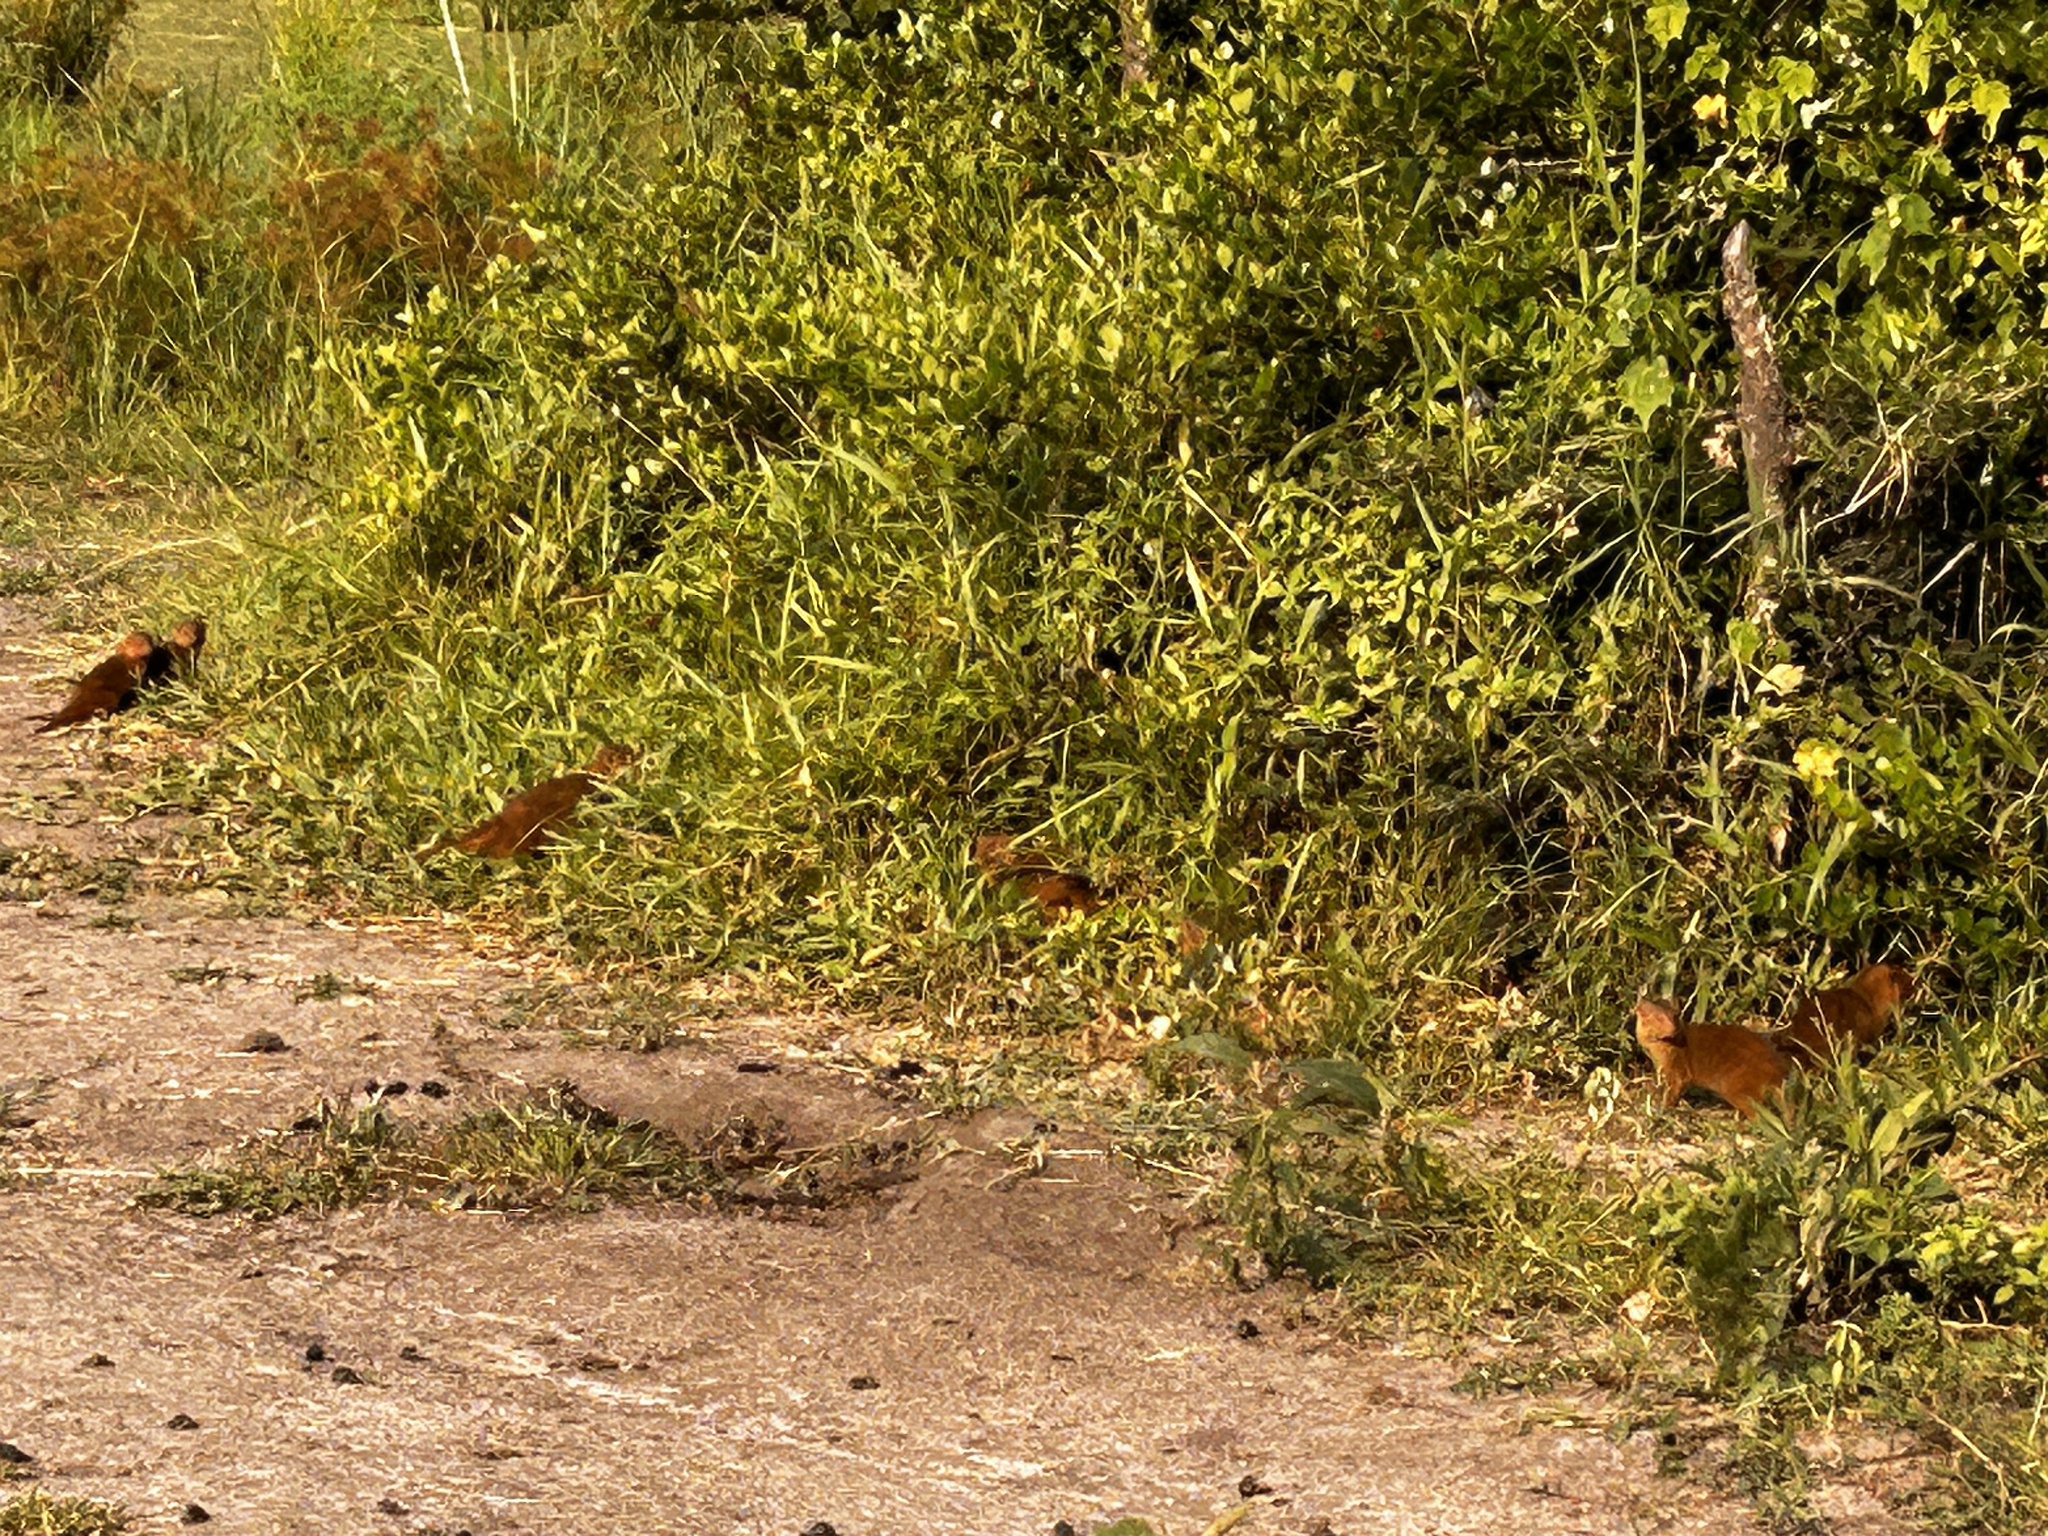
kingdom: Animalia
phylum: Chordata
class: Mammalia
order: Carnivora
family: Herpestidae
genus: Helogale
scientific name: Helogale parvula
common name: Common dwarf mongoose
